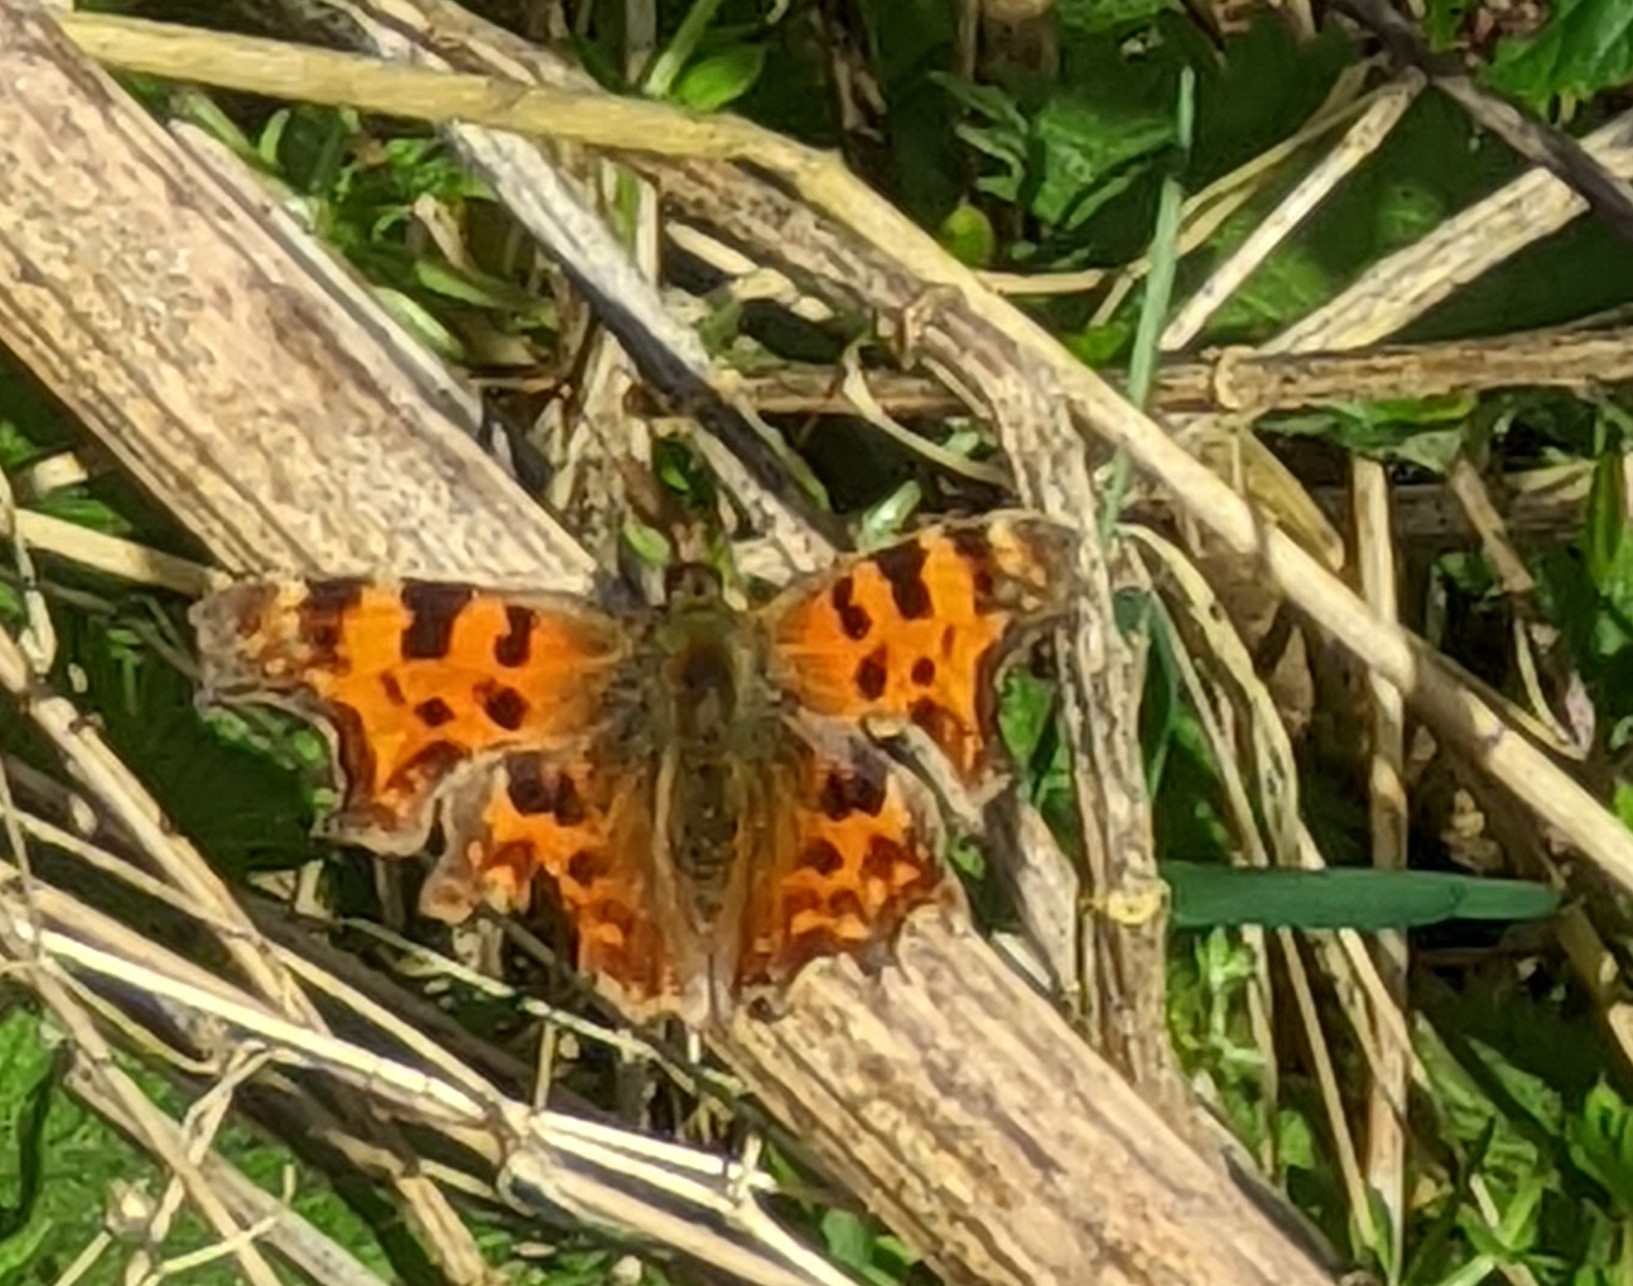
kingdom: Animalia
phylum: Arthropoda
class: Insecta
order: Lepidoptera
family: Nymphalidae
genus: Polygonia
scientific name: Polygonia c-album
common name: Comma
